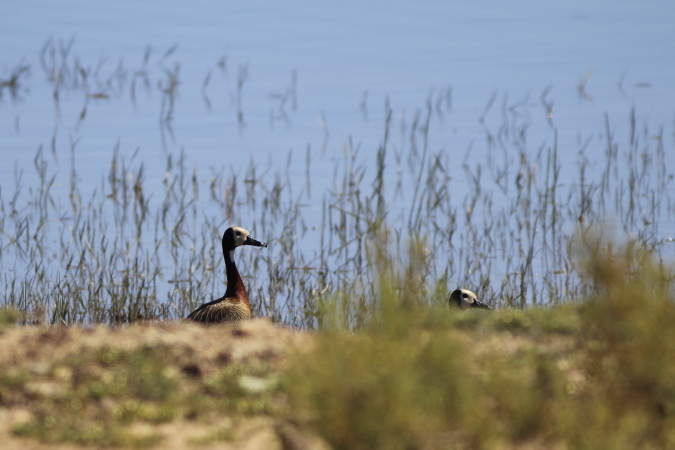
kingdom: Animalia
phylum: Chordata
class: Aves
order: Anseriformes
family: Anatidae
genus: Dendrocygna
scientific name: Dendrocygna viduata
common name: White-faced whistling duck
